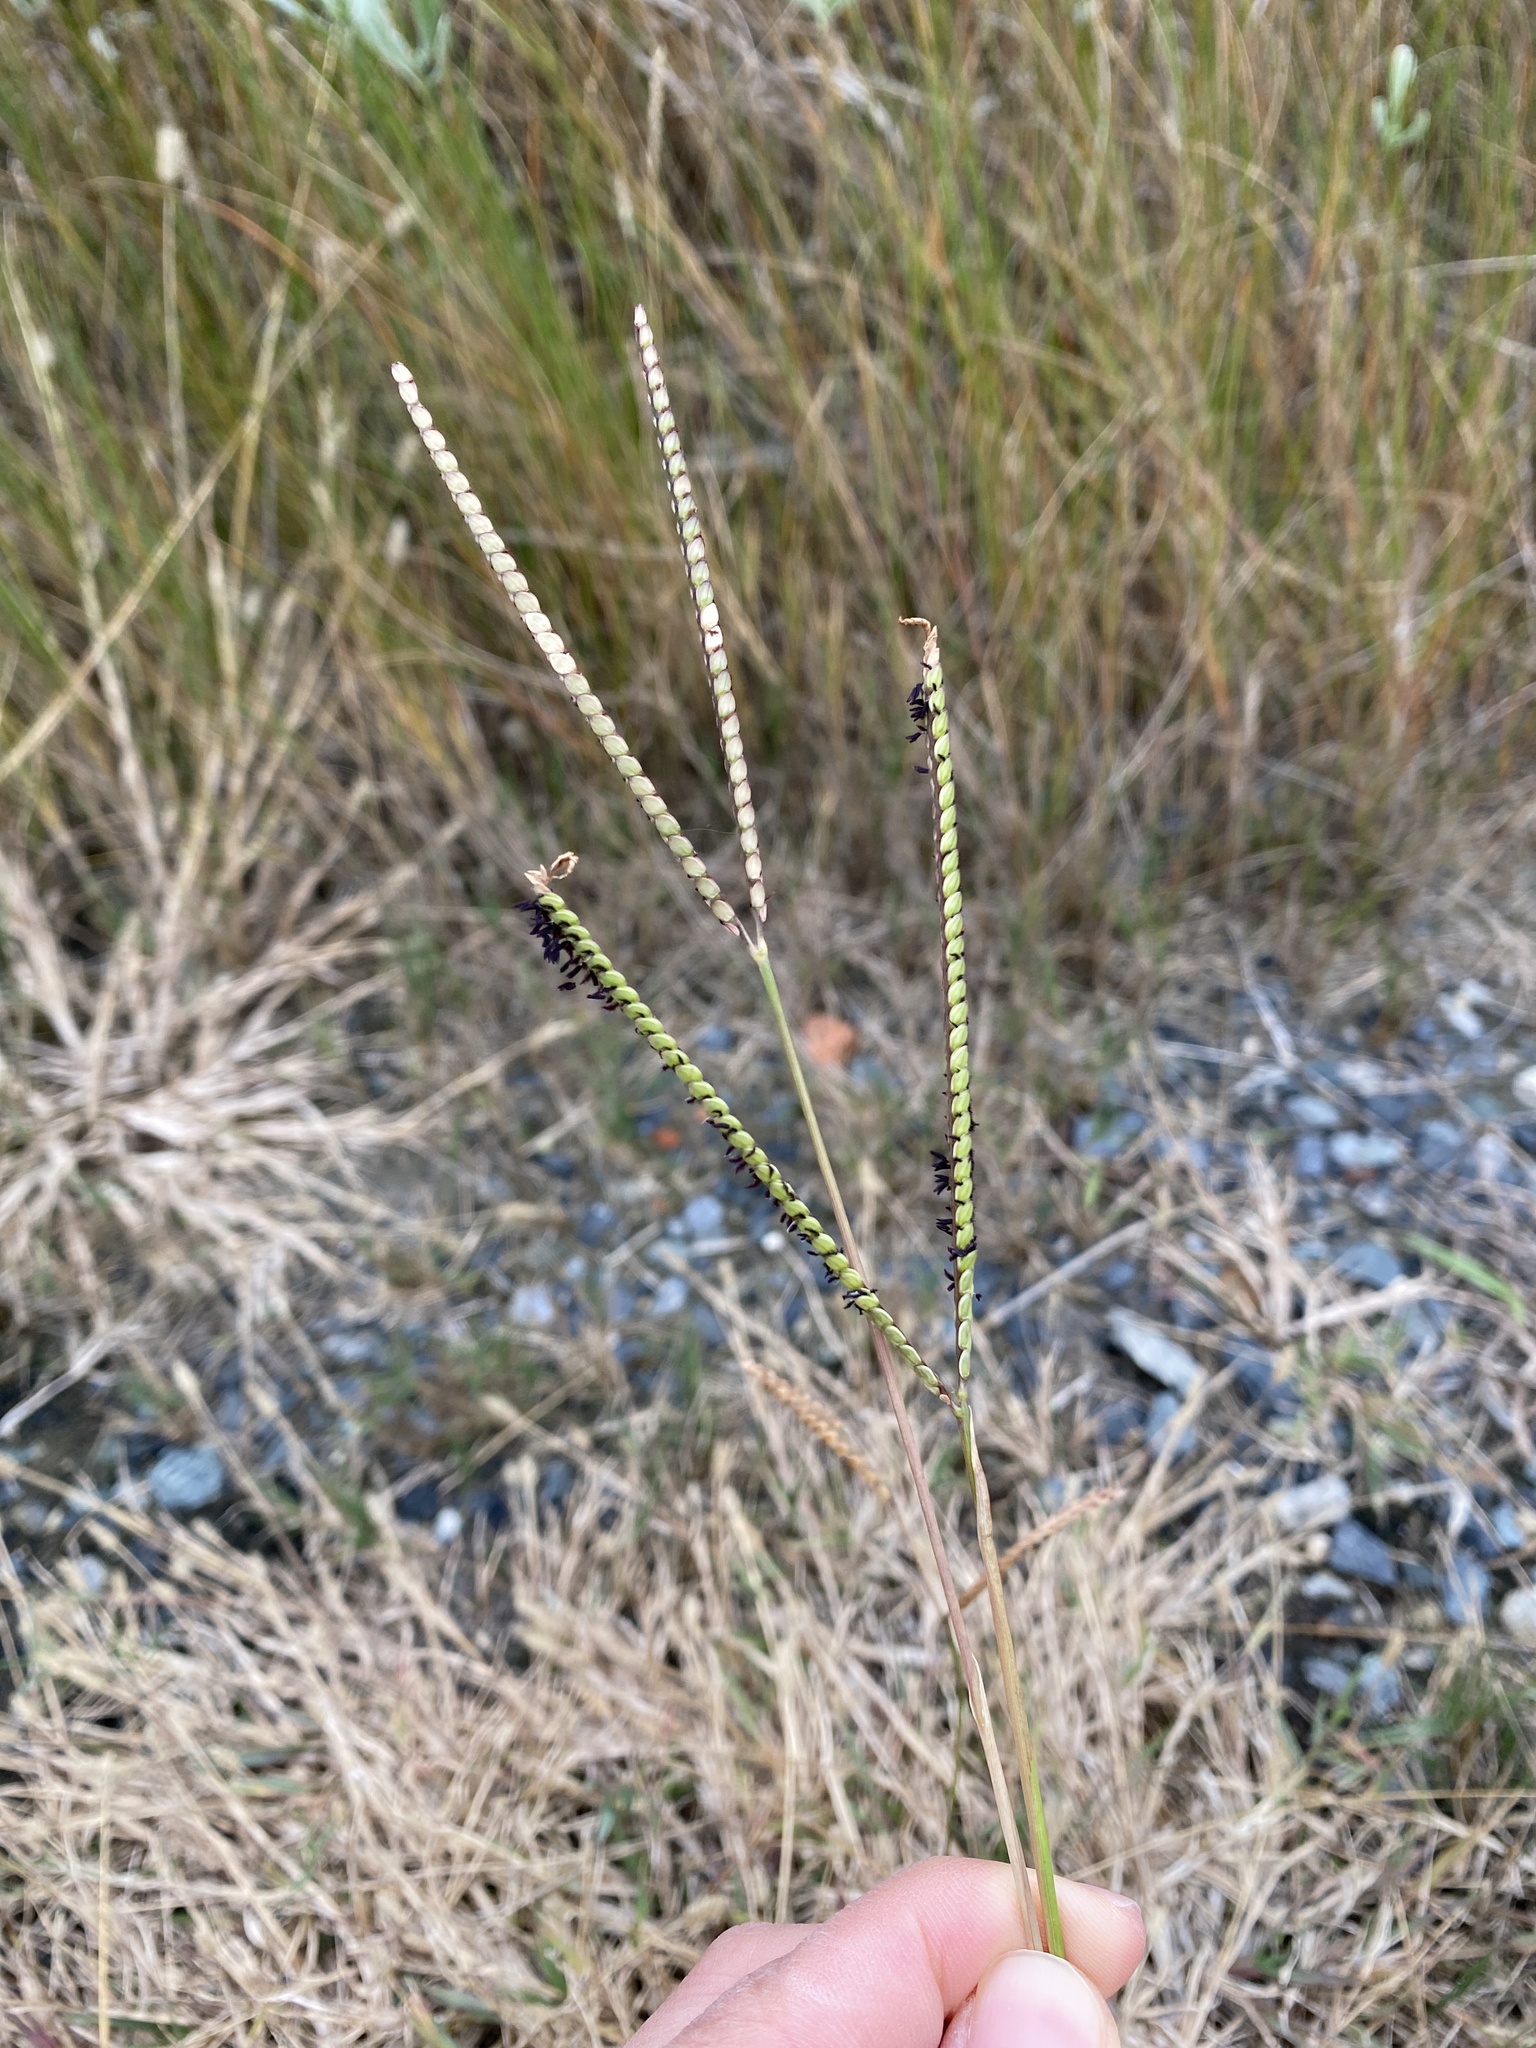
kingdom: Plantae
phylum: Tracheophyta
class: Liliopsida
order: Poales
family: Poaceae
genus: Paspalum
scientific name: Paspalum notatum
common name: Bahiagrass
